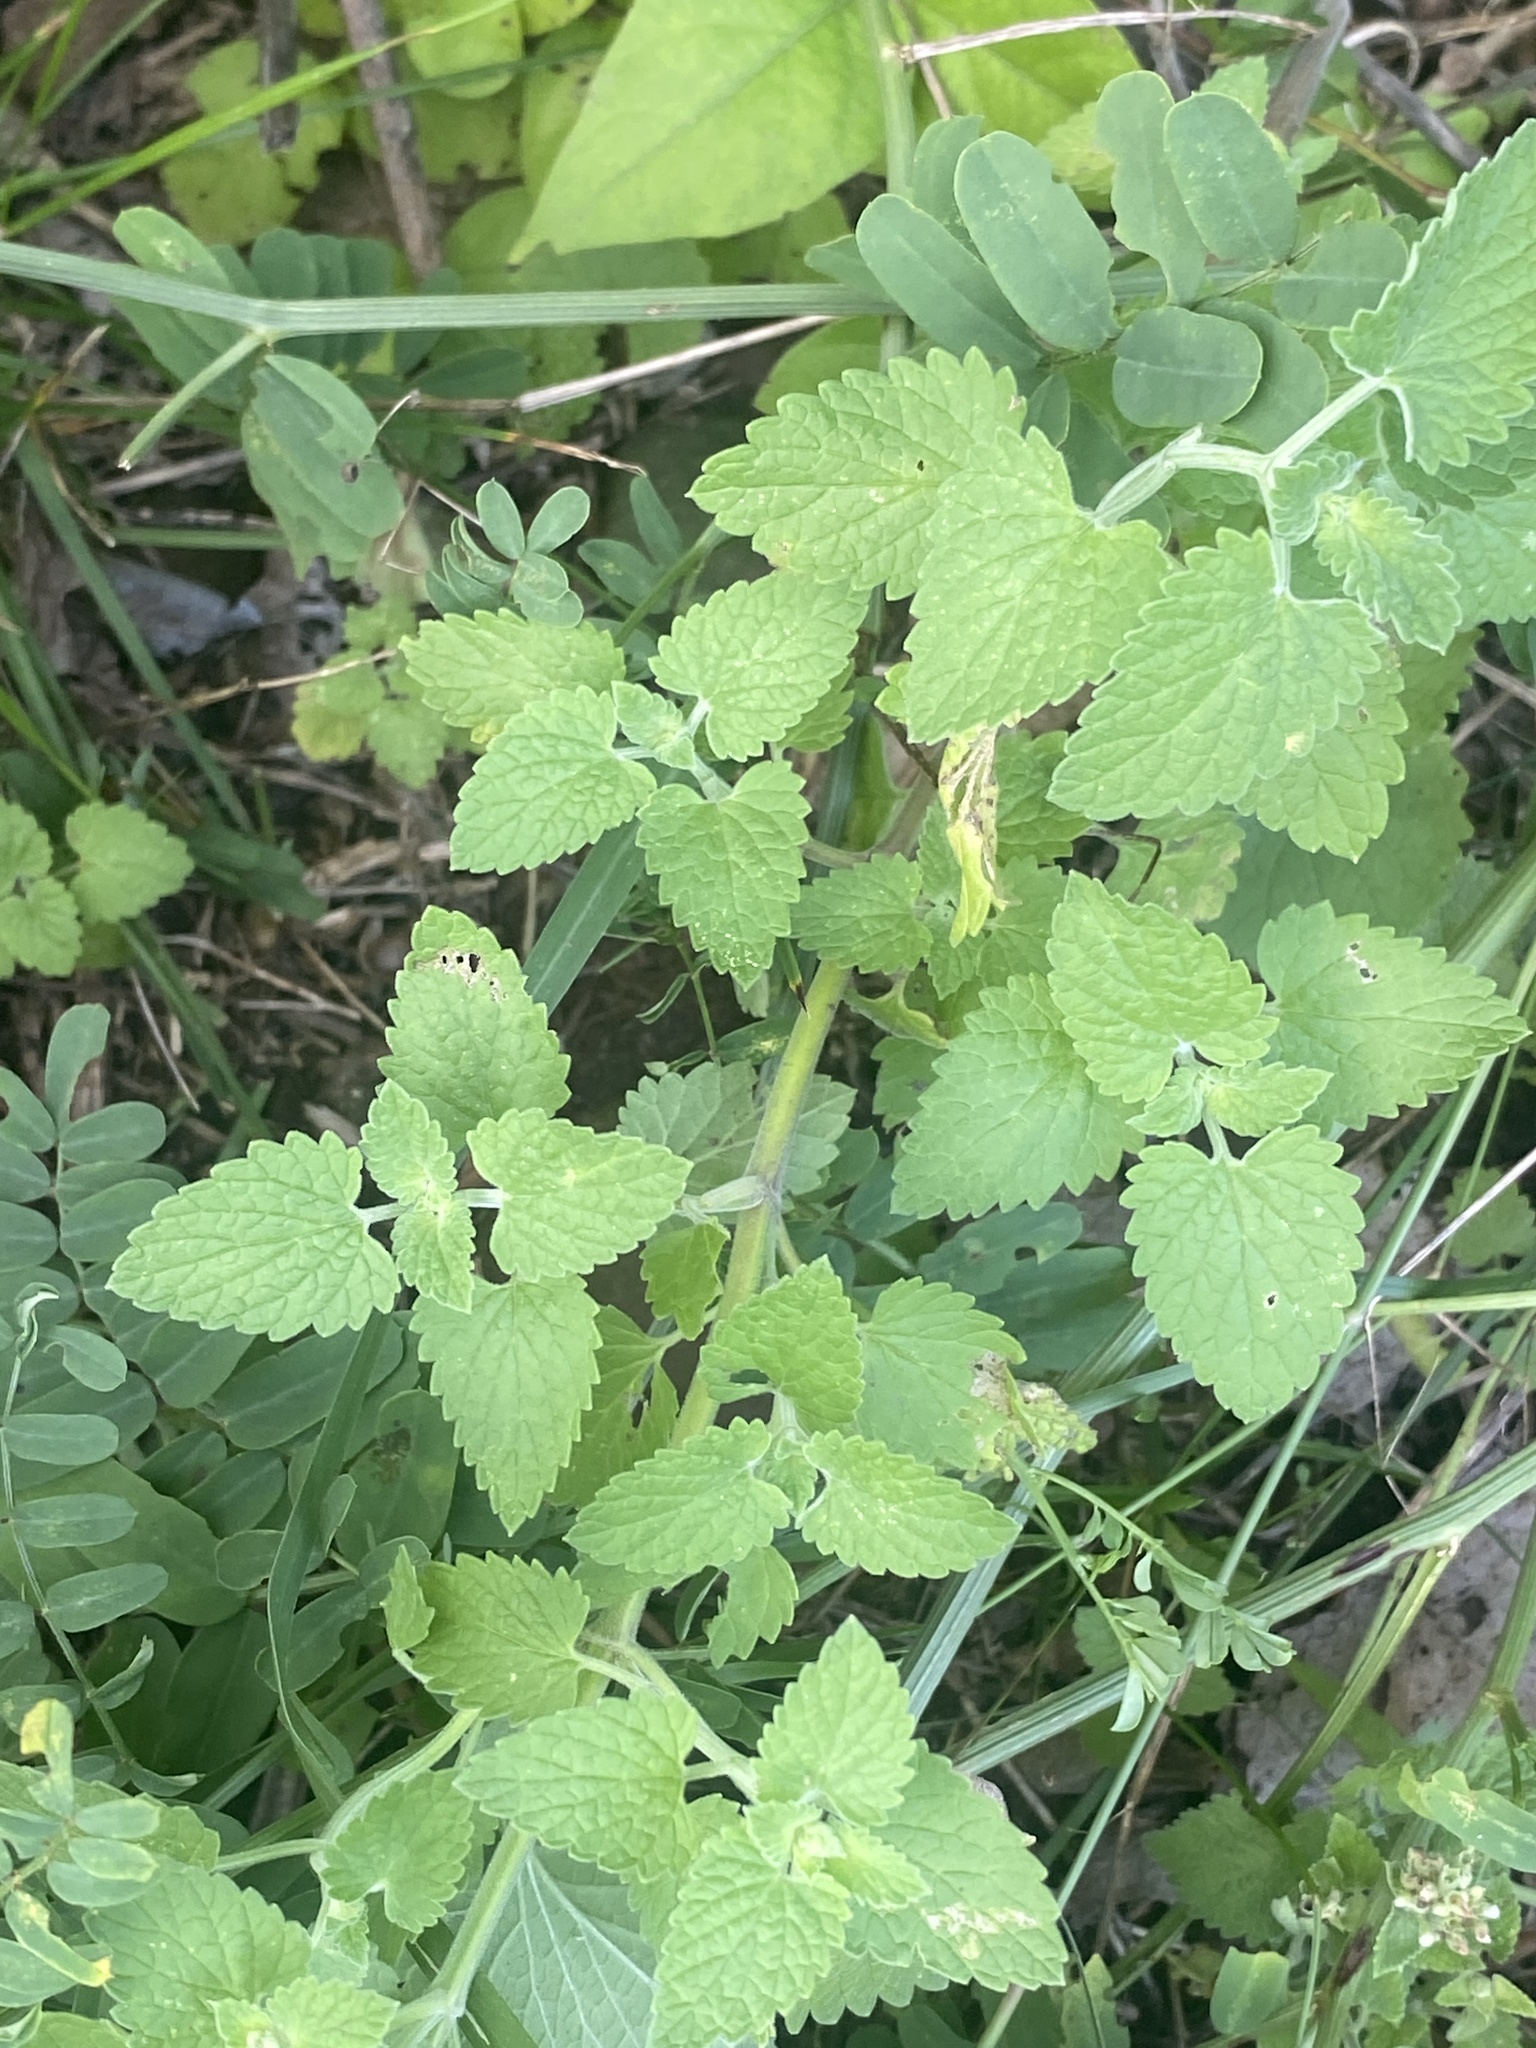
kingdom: Plantae
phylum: Tracheophyta
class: Magnoliopsida
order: Lamiales
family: Lamiaceae
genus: Nepeta
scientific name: Nepeta cataria
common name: Catnip
